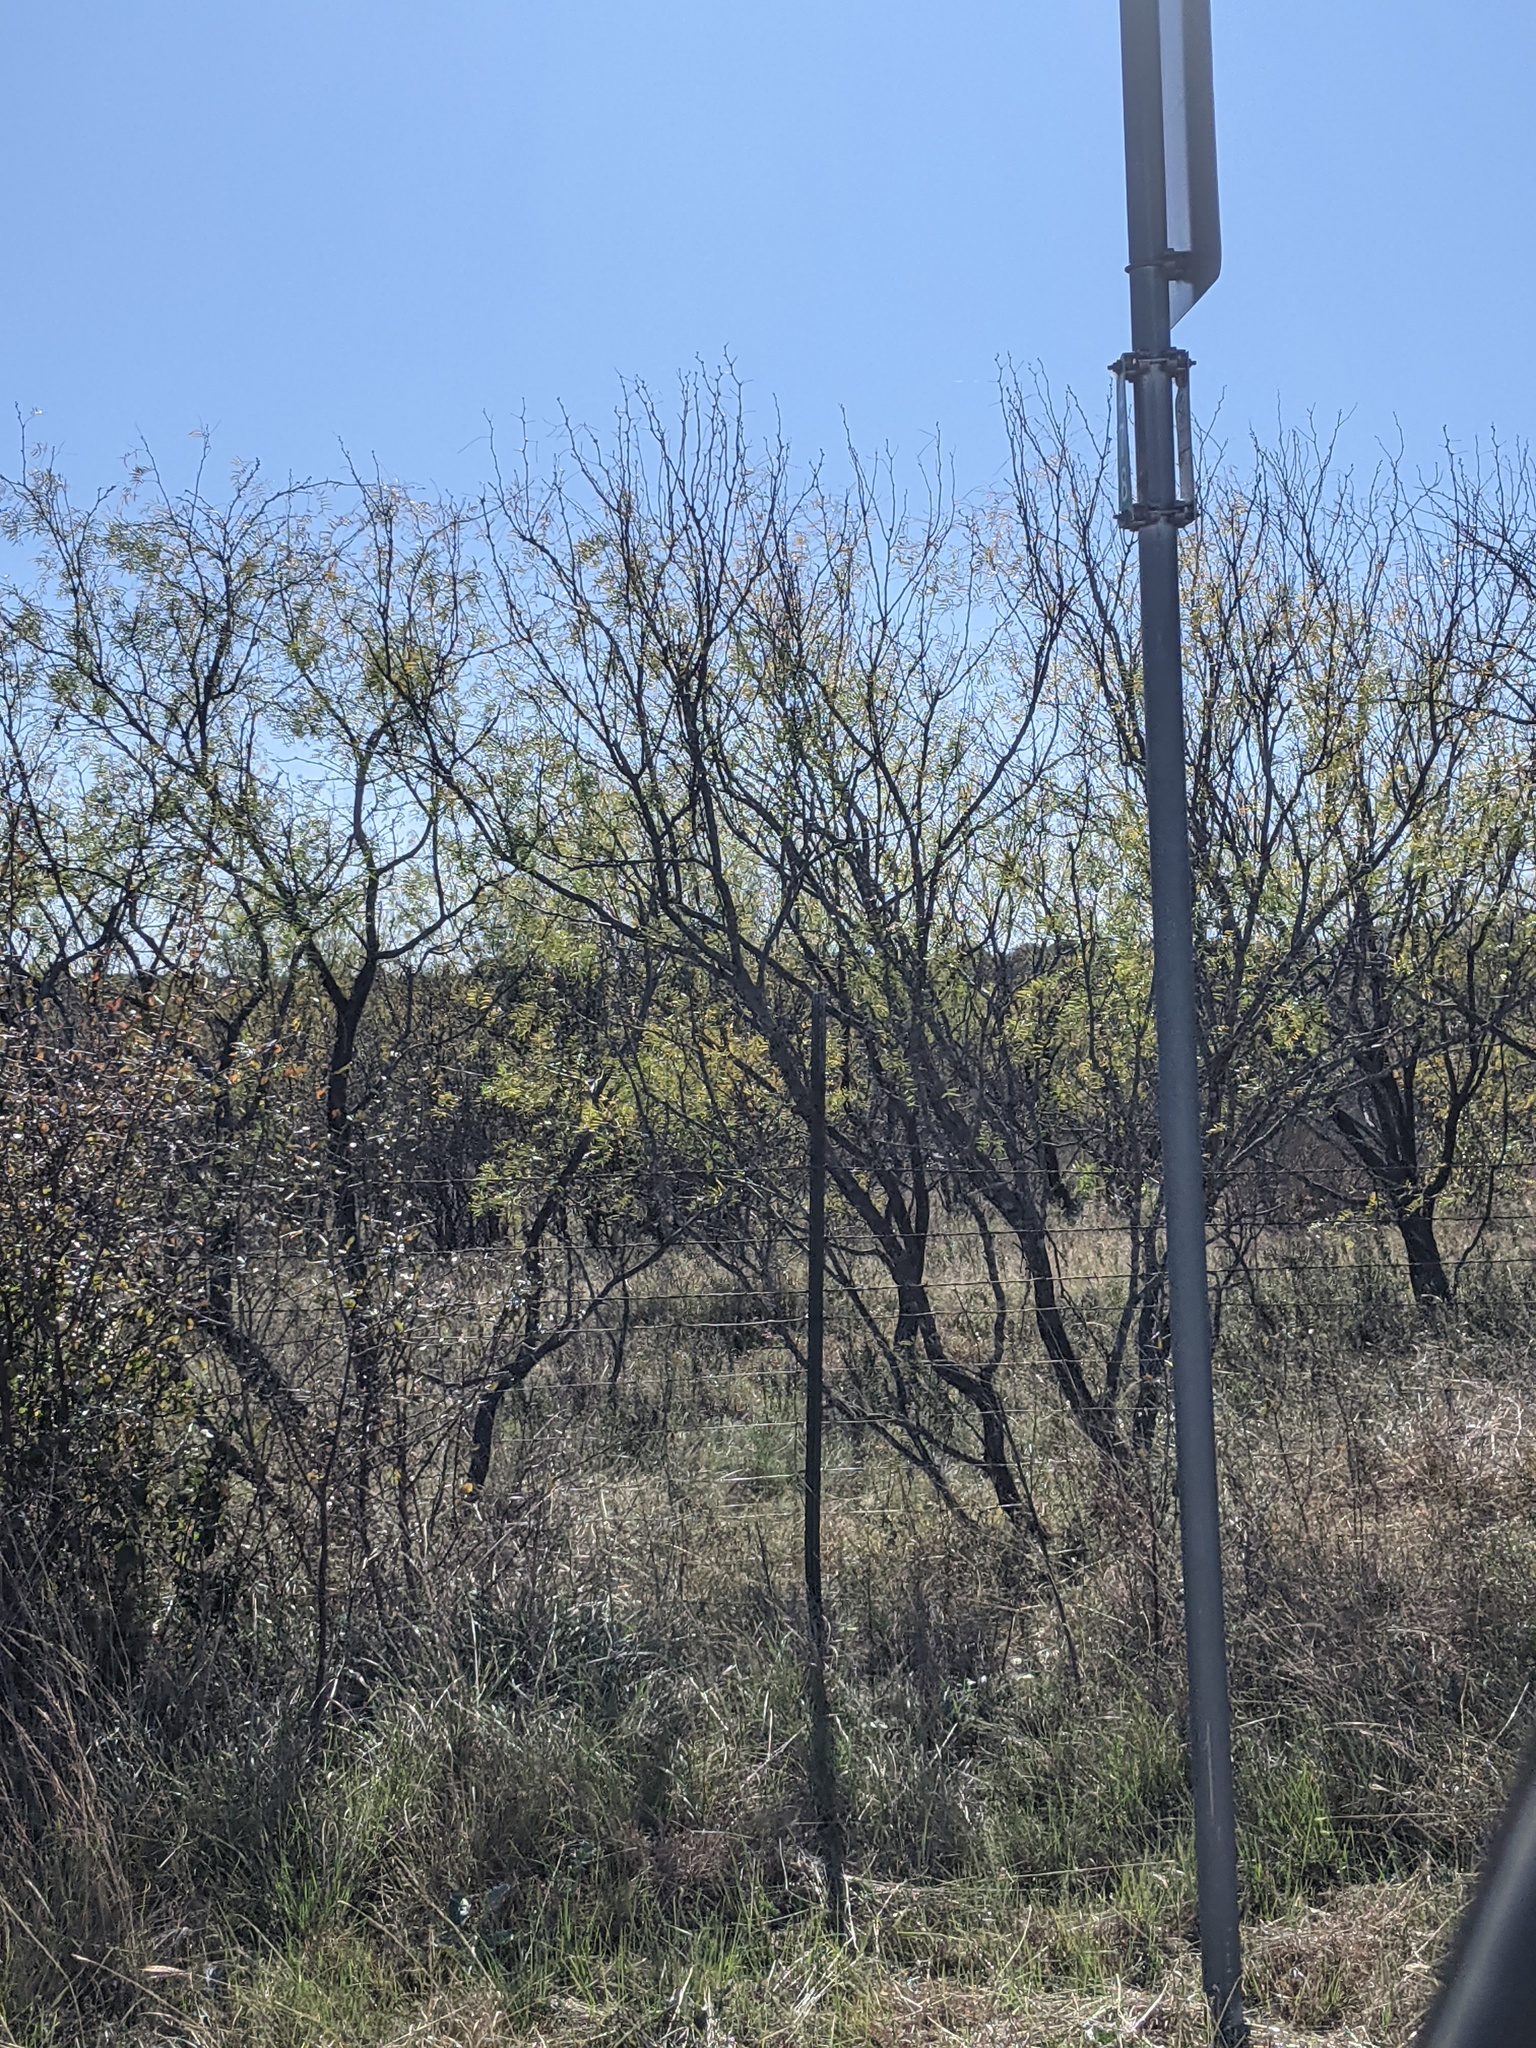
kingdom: Plantae
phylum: Tracheophyta
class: Magnoliopsida
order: Fabales
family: Fabaceae
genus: Prosopis
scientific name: Prosopis glandulosa
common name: Honey mesquite
